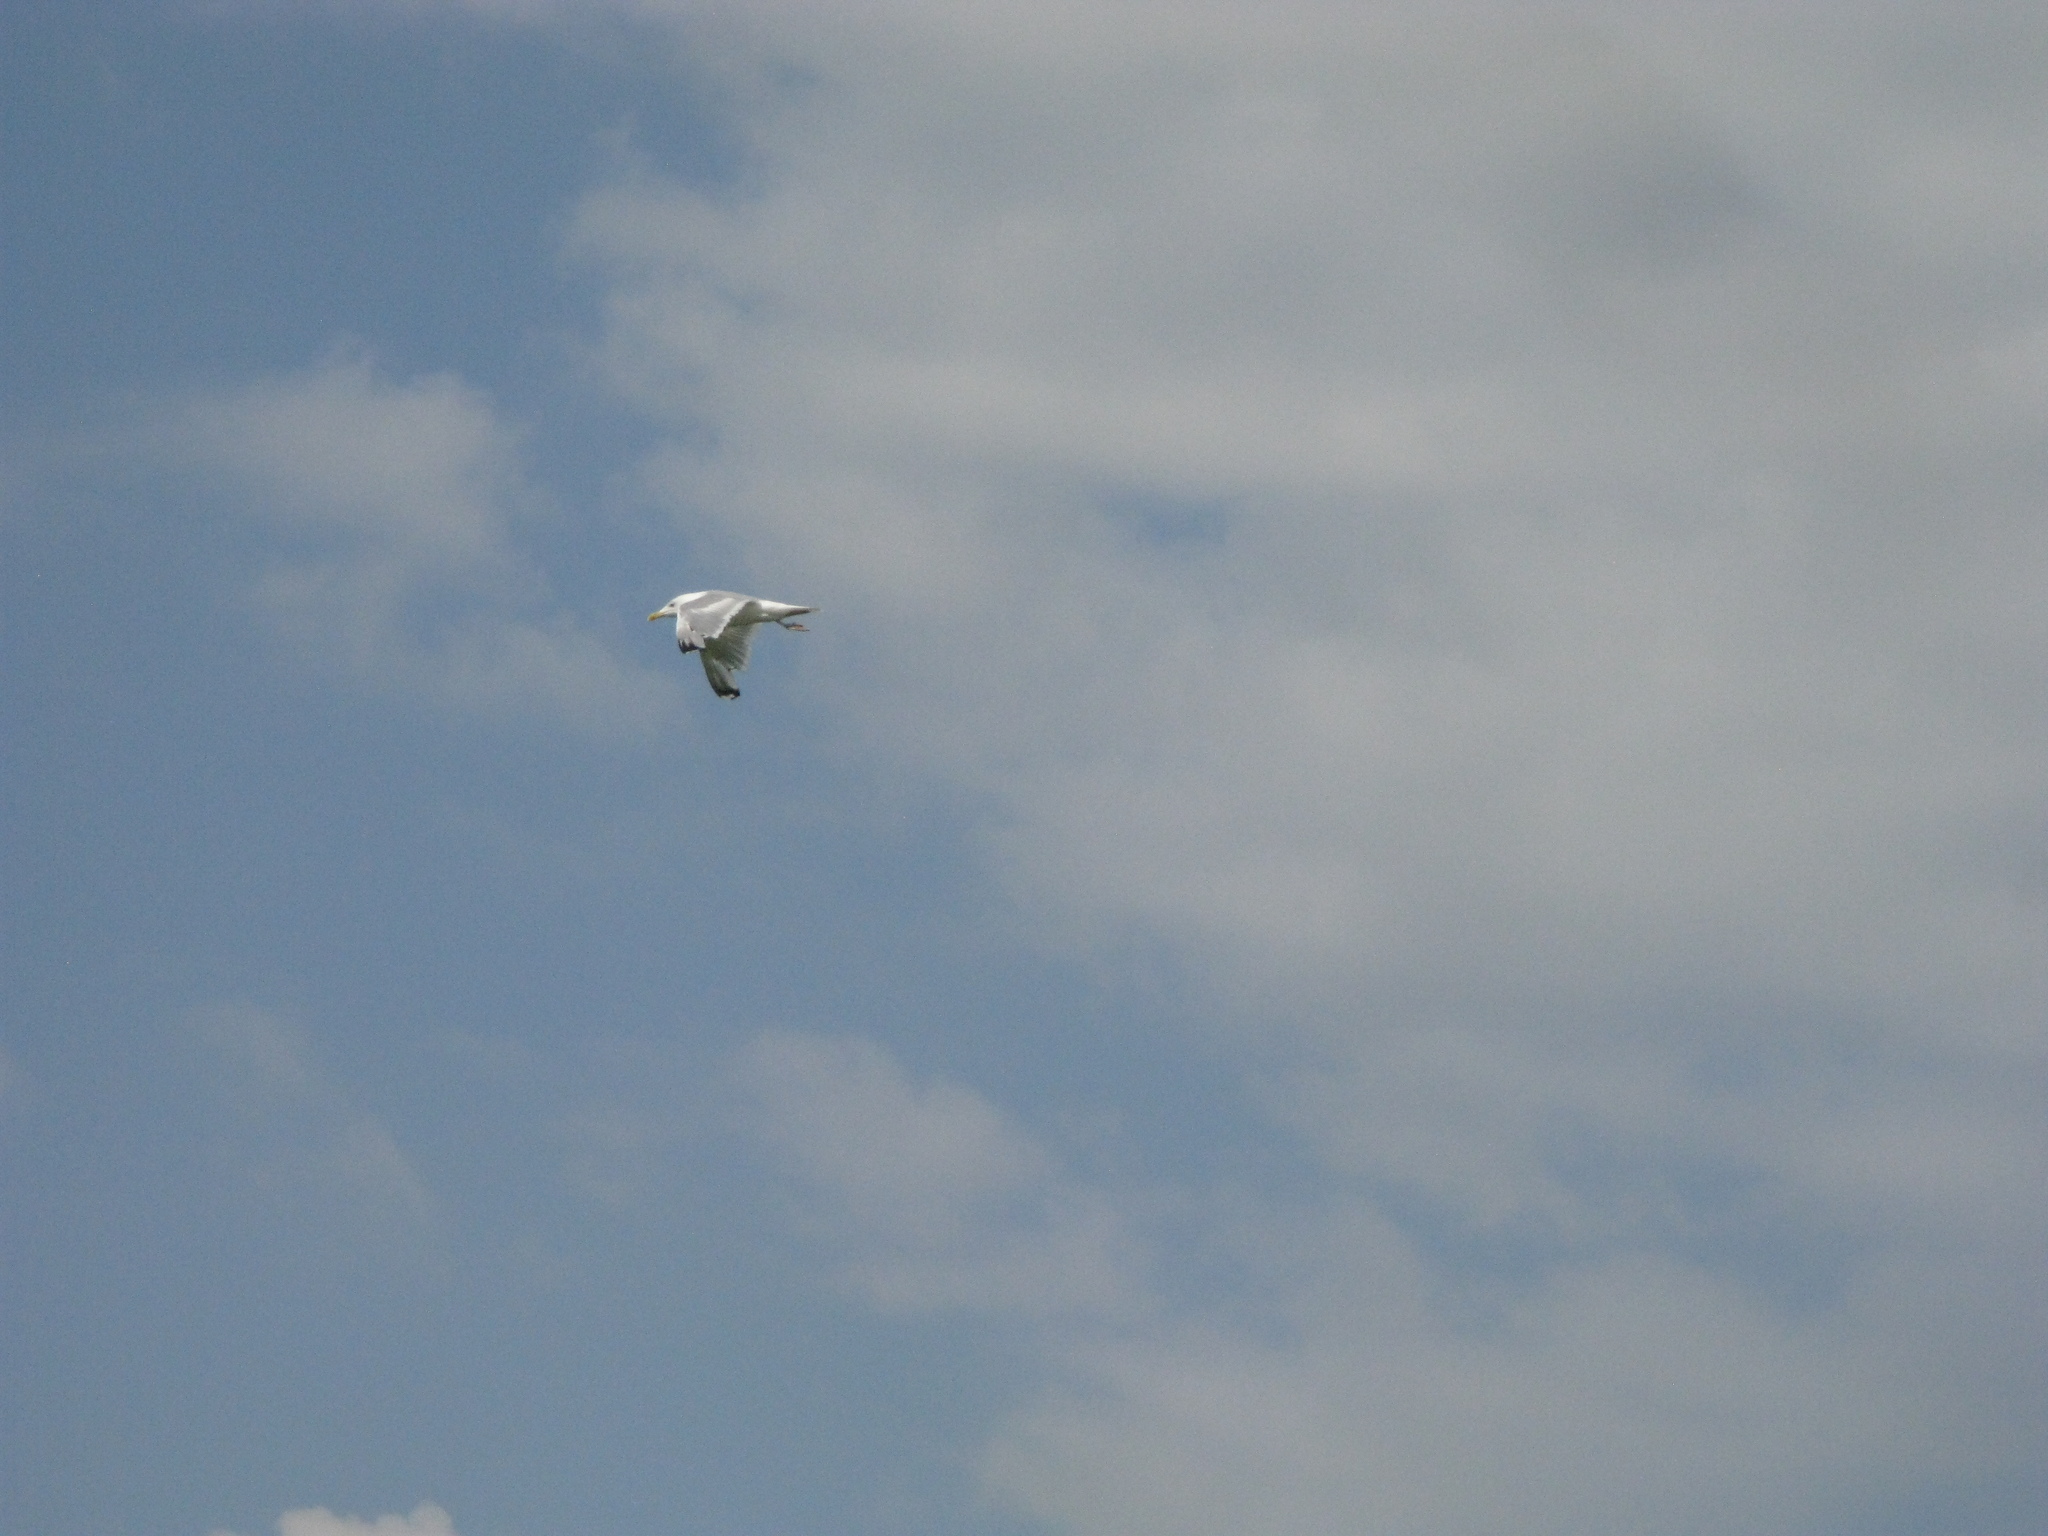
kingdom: Animalia
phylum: Chordata
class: Aves
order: Charadriiformes
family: Laridae
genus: Larus
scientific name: Larus cachinnans
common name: Caspian gull
